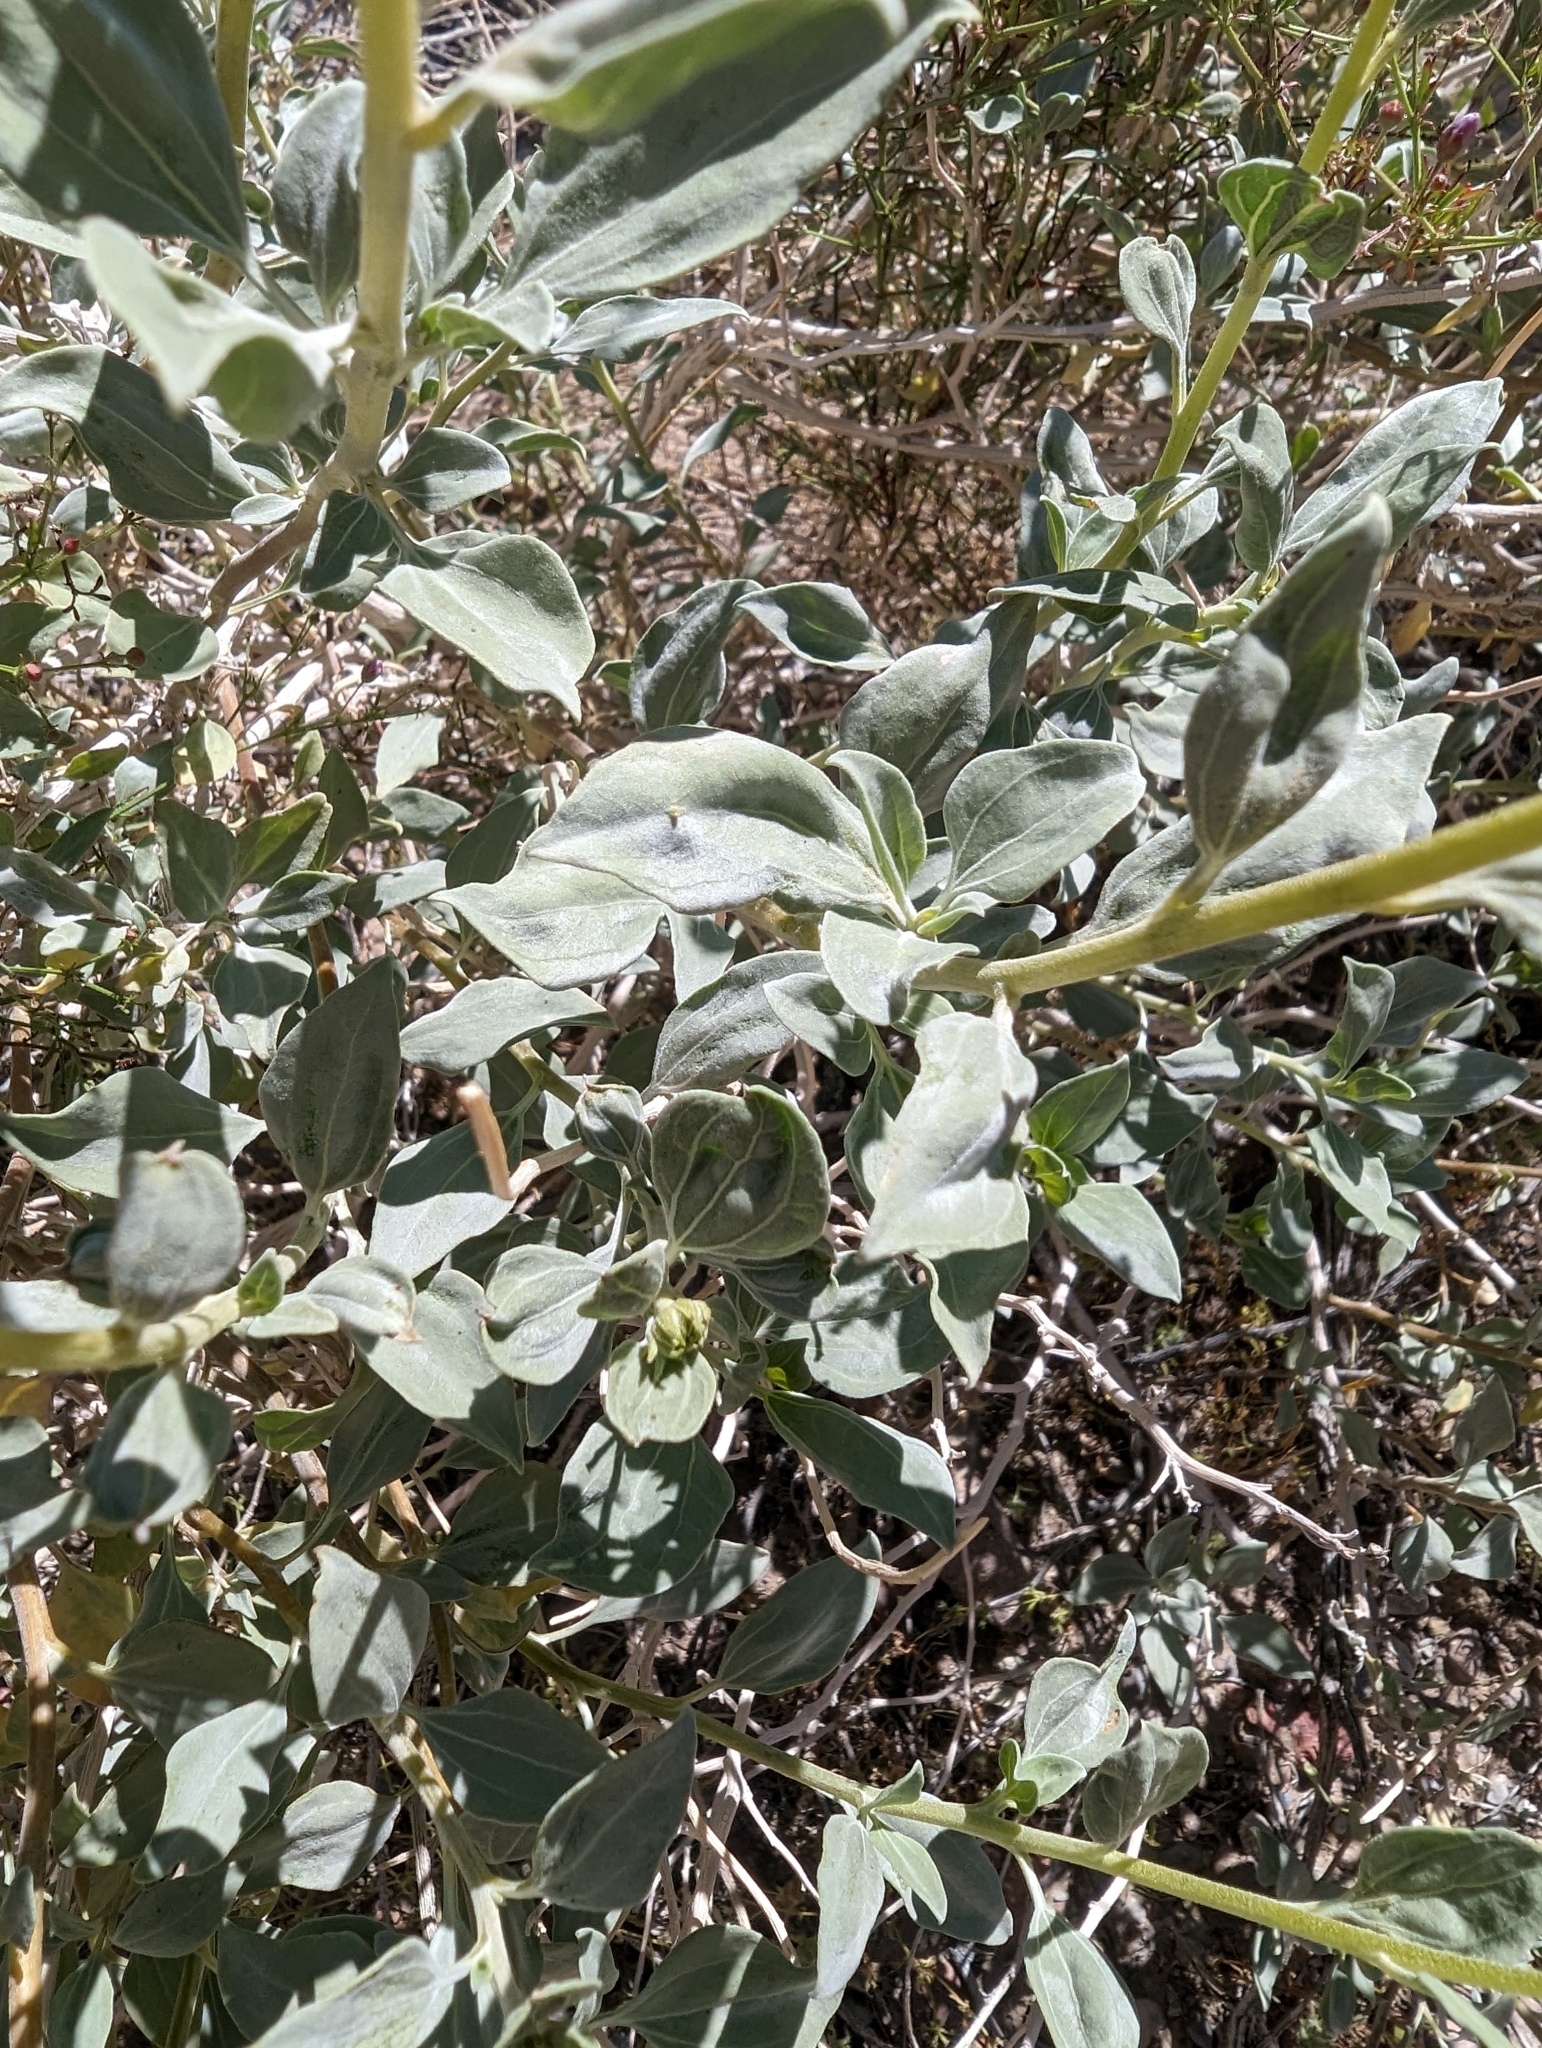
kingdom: Plantae
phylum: Tracheophyta
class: Magnoliopsida
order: Asterales
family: Asteraceae
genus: Encelia
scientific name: Encelia actoni
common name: Acton encelia
